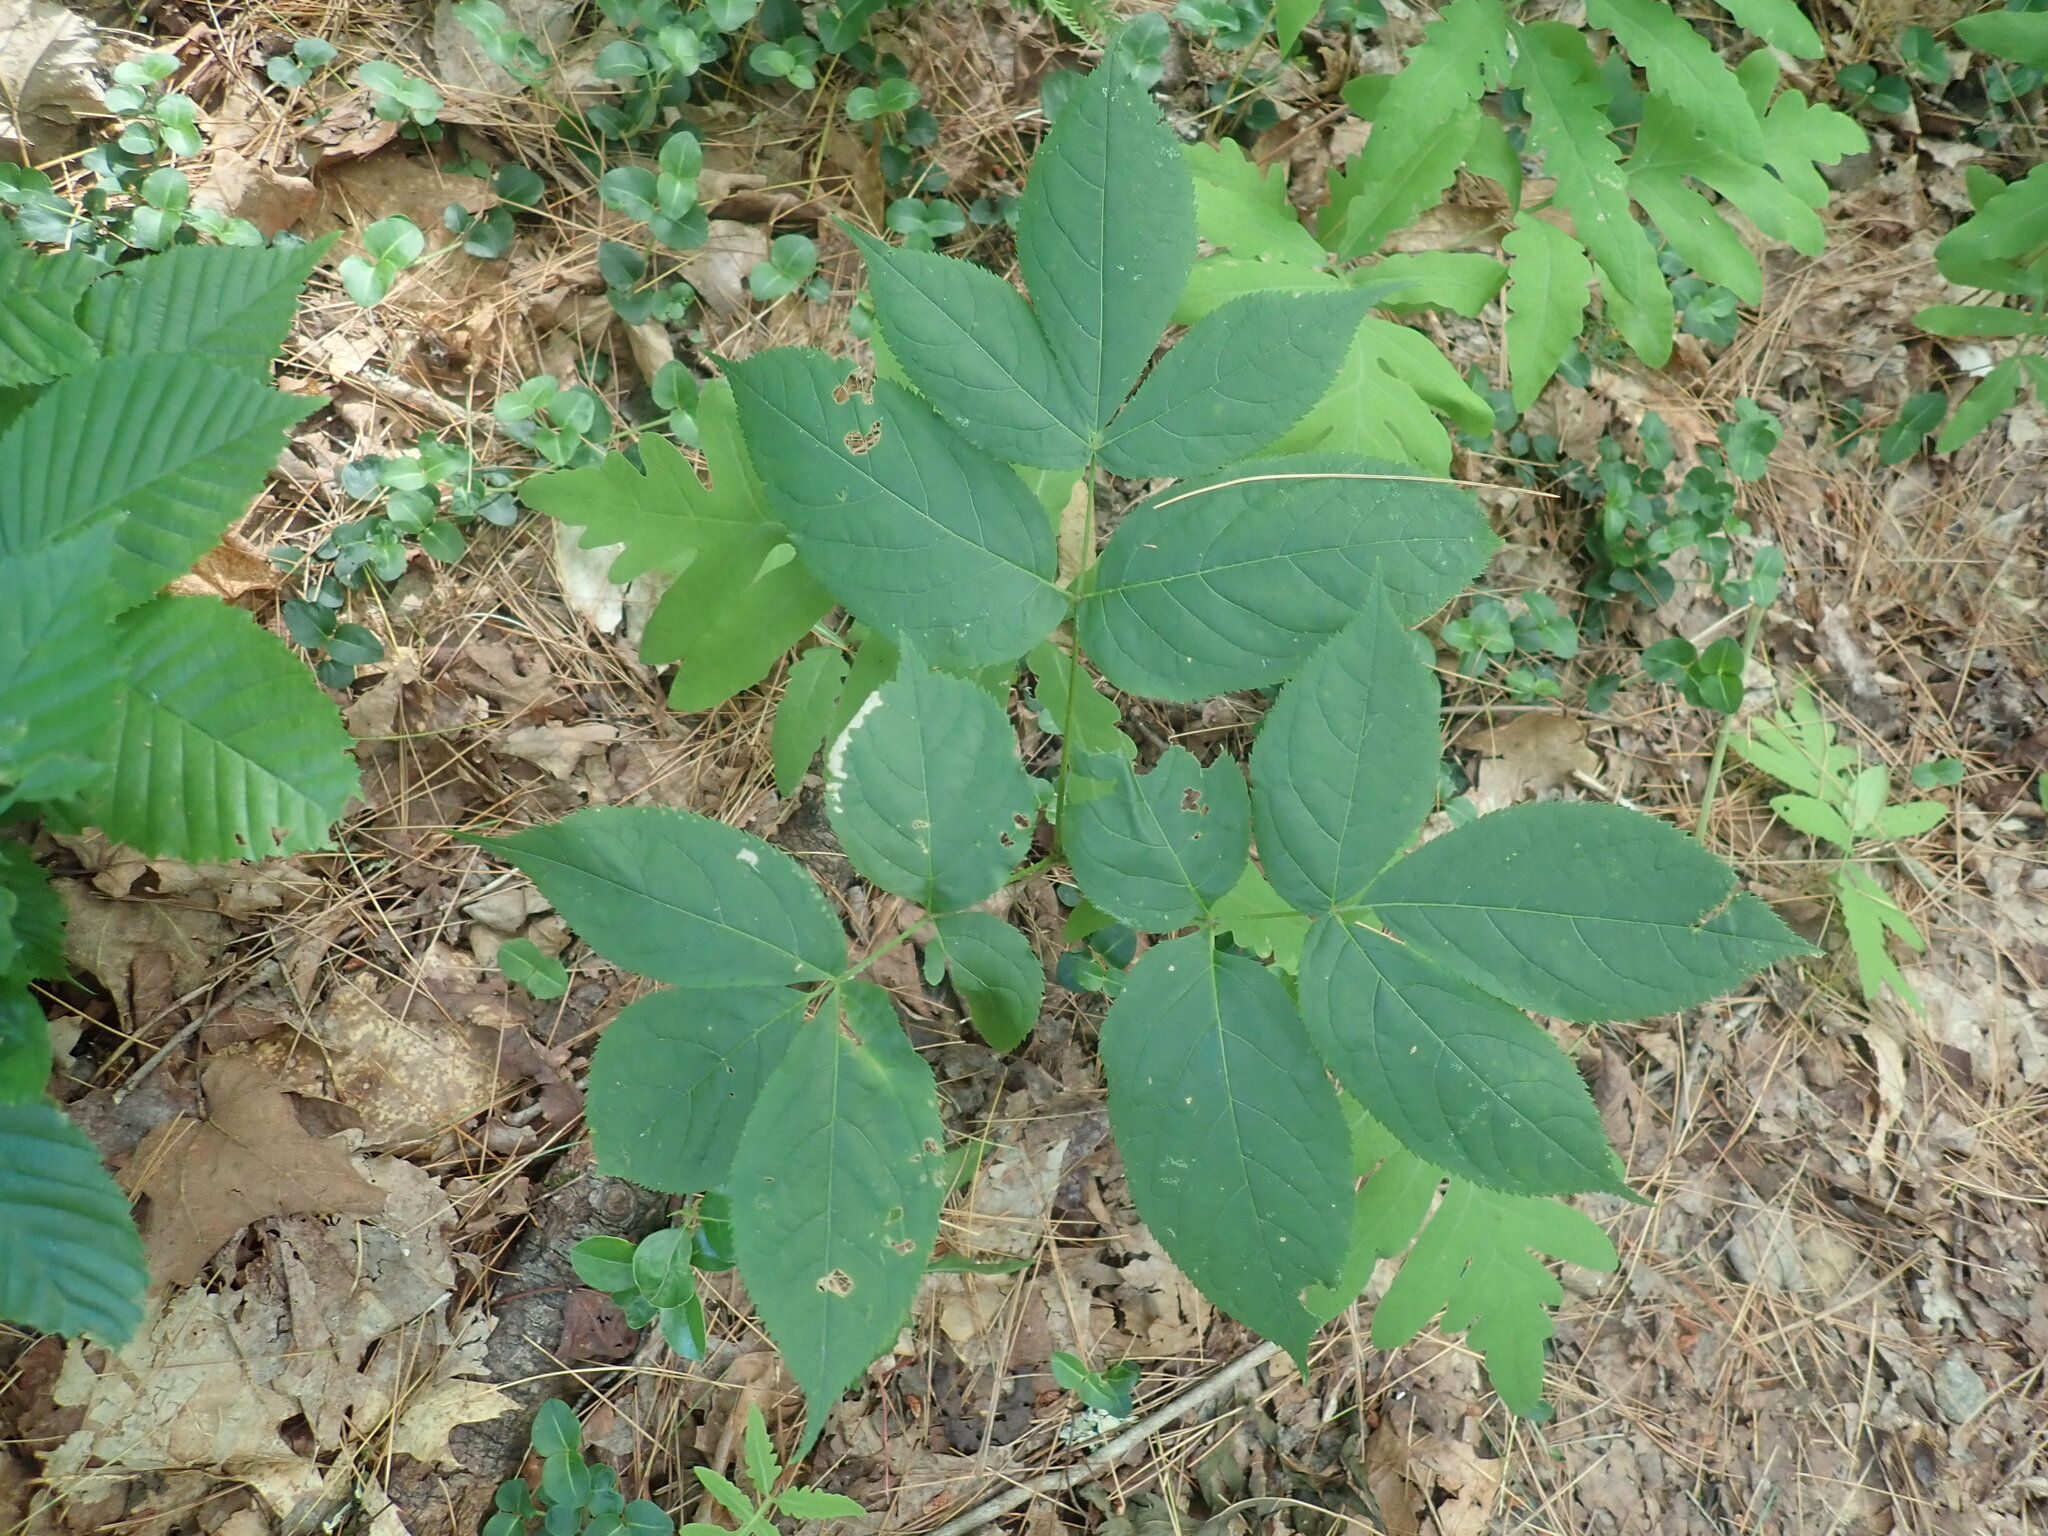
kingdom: Plantae
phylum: Tracheophyta
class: Magnoliopsida
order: Apiales
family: Araliaceae
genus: Aralia
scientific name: Aralia nudicaulis
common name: Wild sarsaparilla
